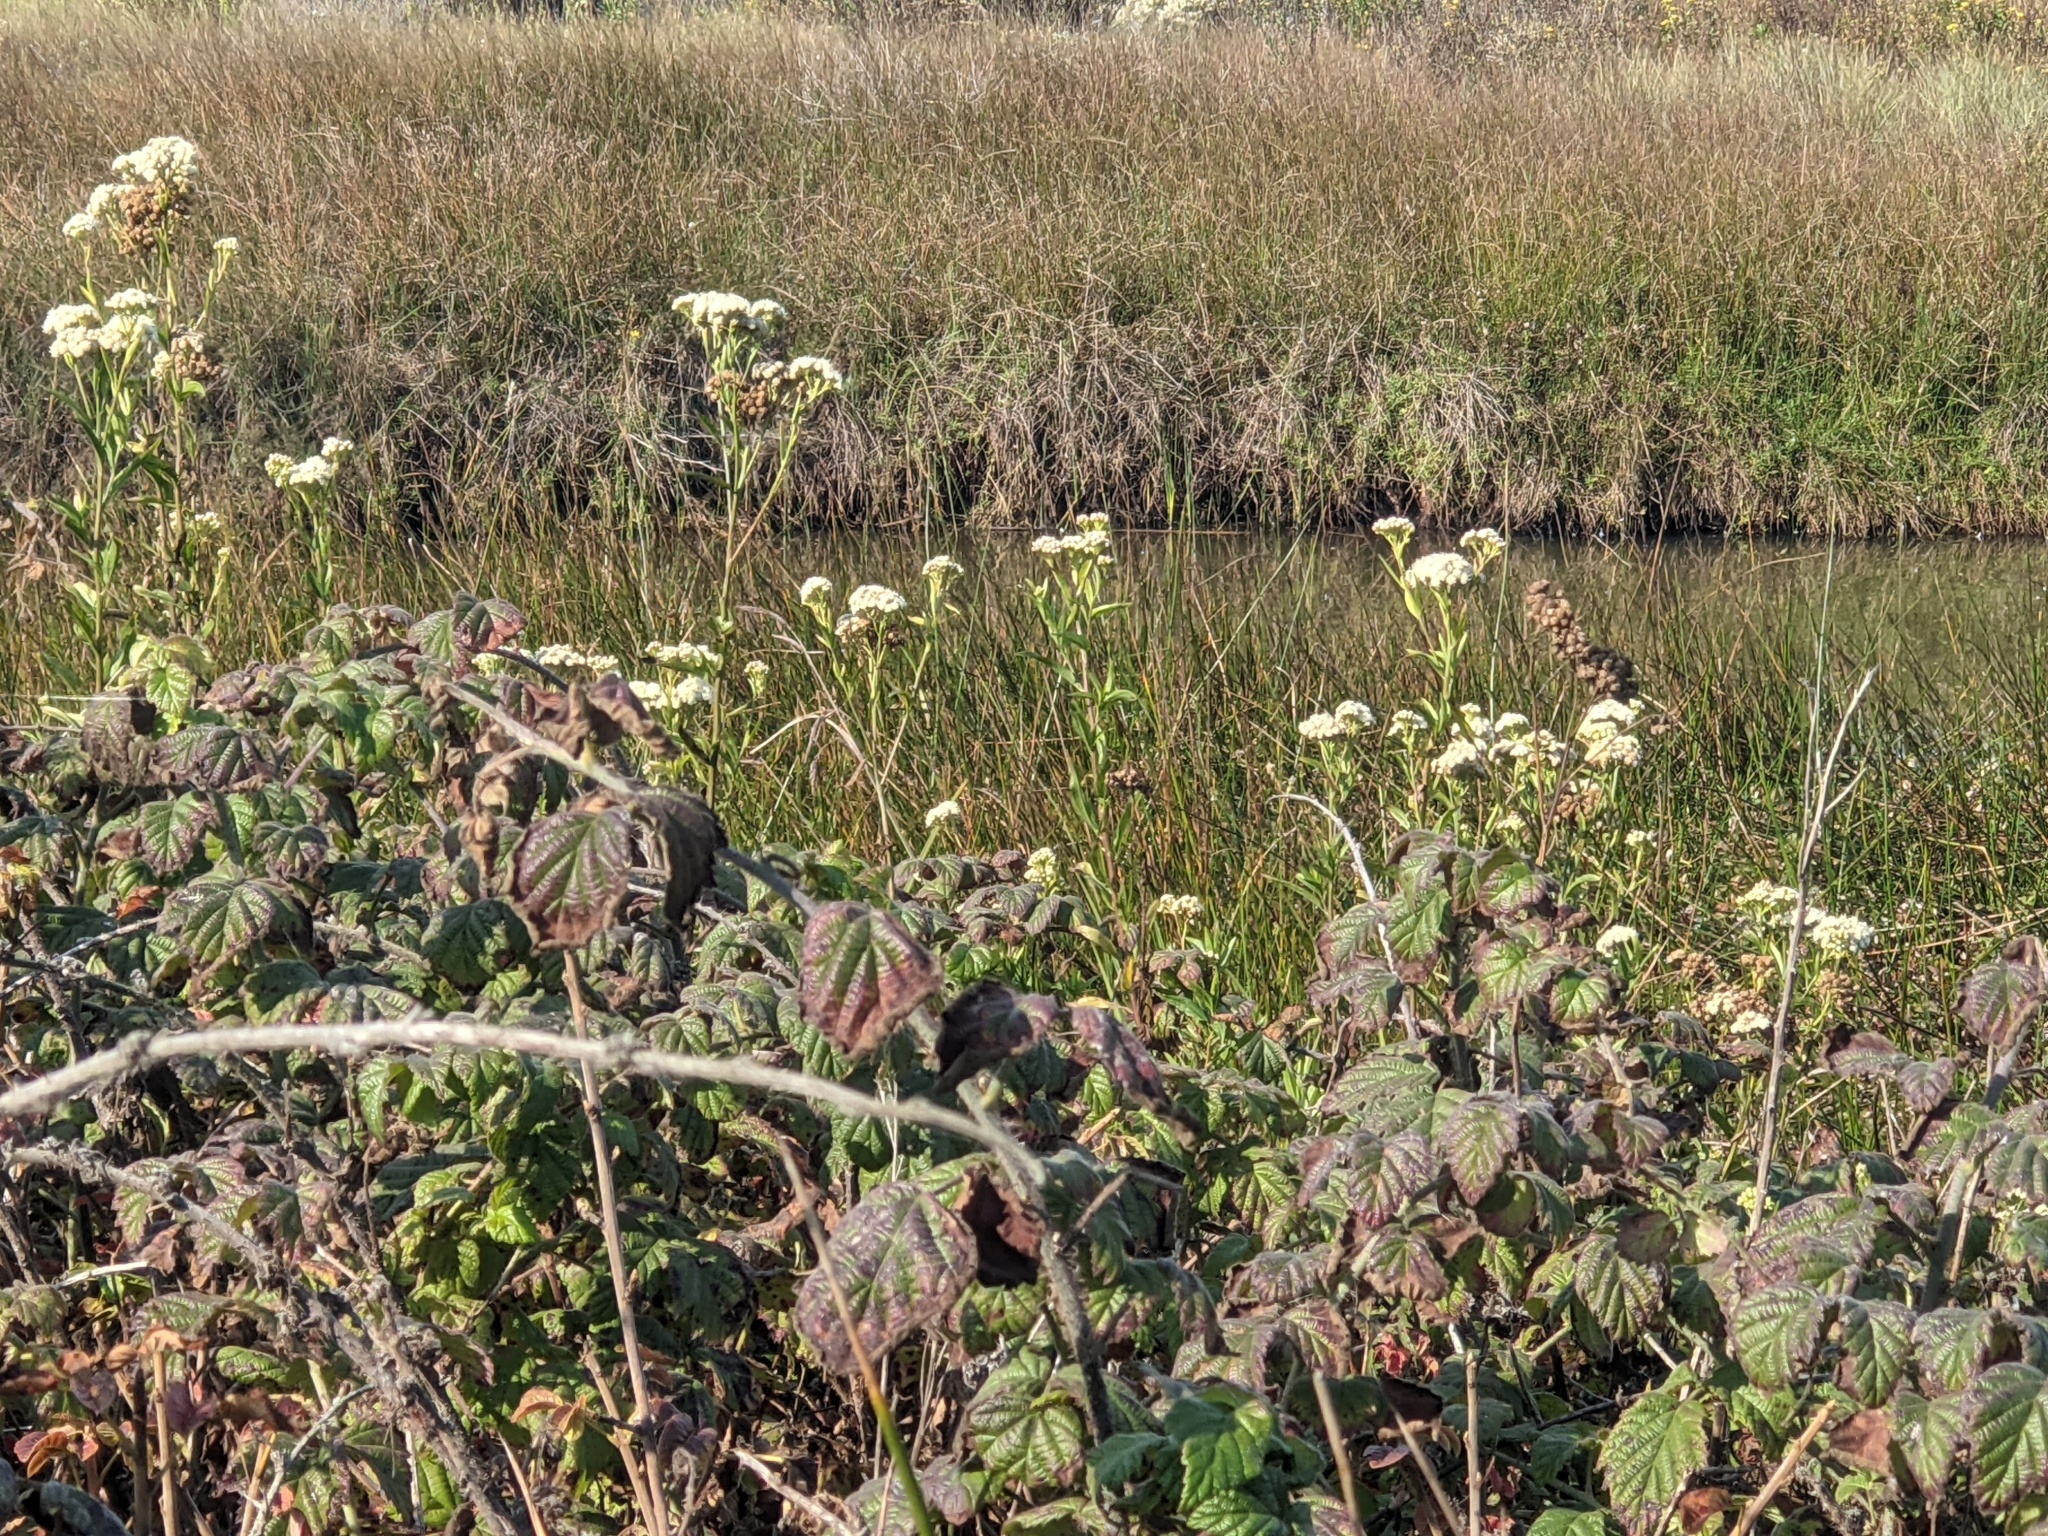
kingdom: Plantae
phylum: Tracheophyta
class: Magnoliopsida
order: Asterales
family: Asteraceae
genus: Baccharis
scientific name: Baccharis glutinosa
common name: Saltmarsh baccharis
